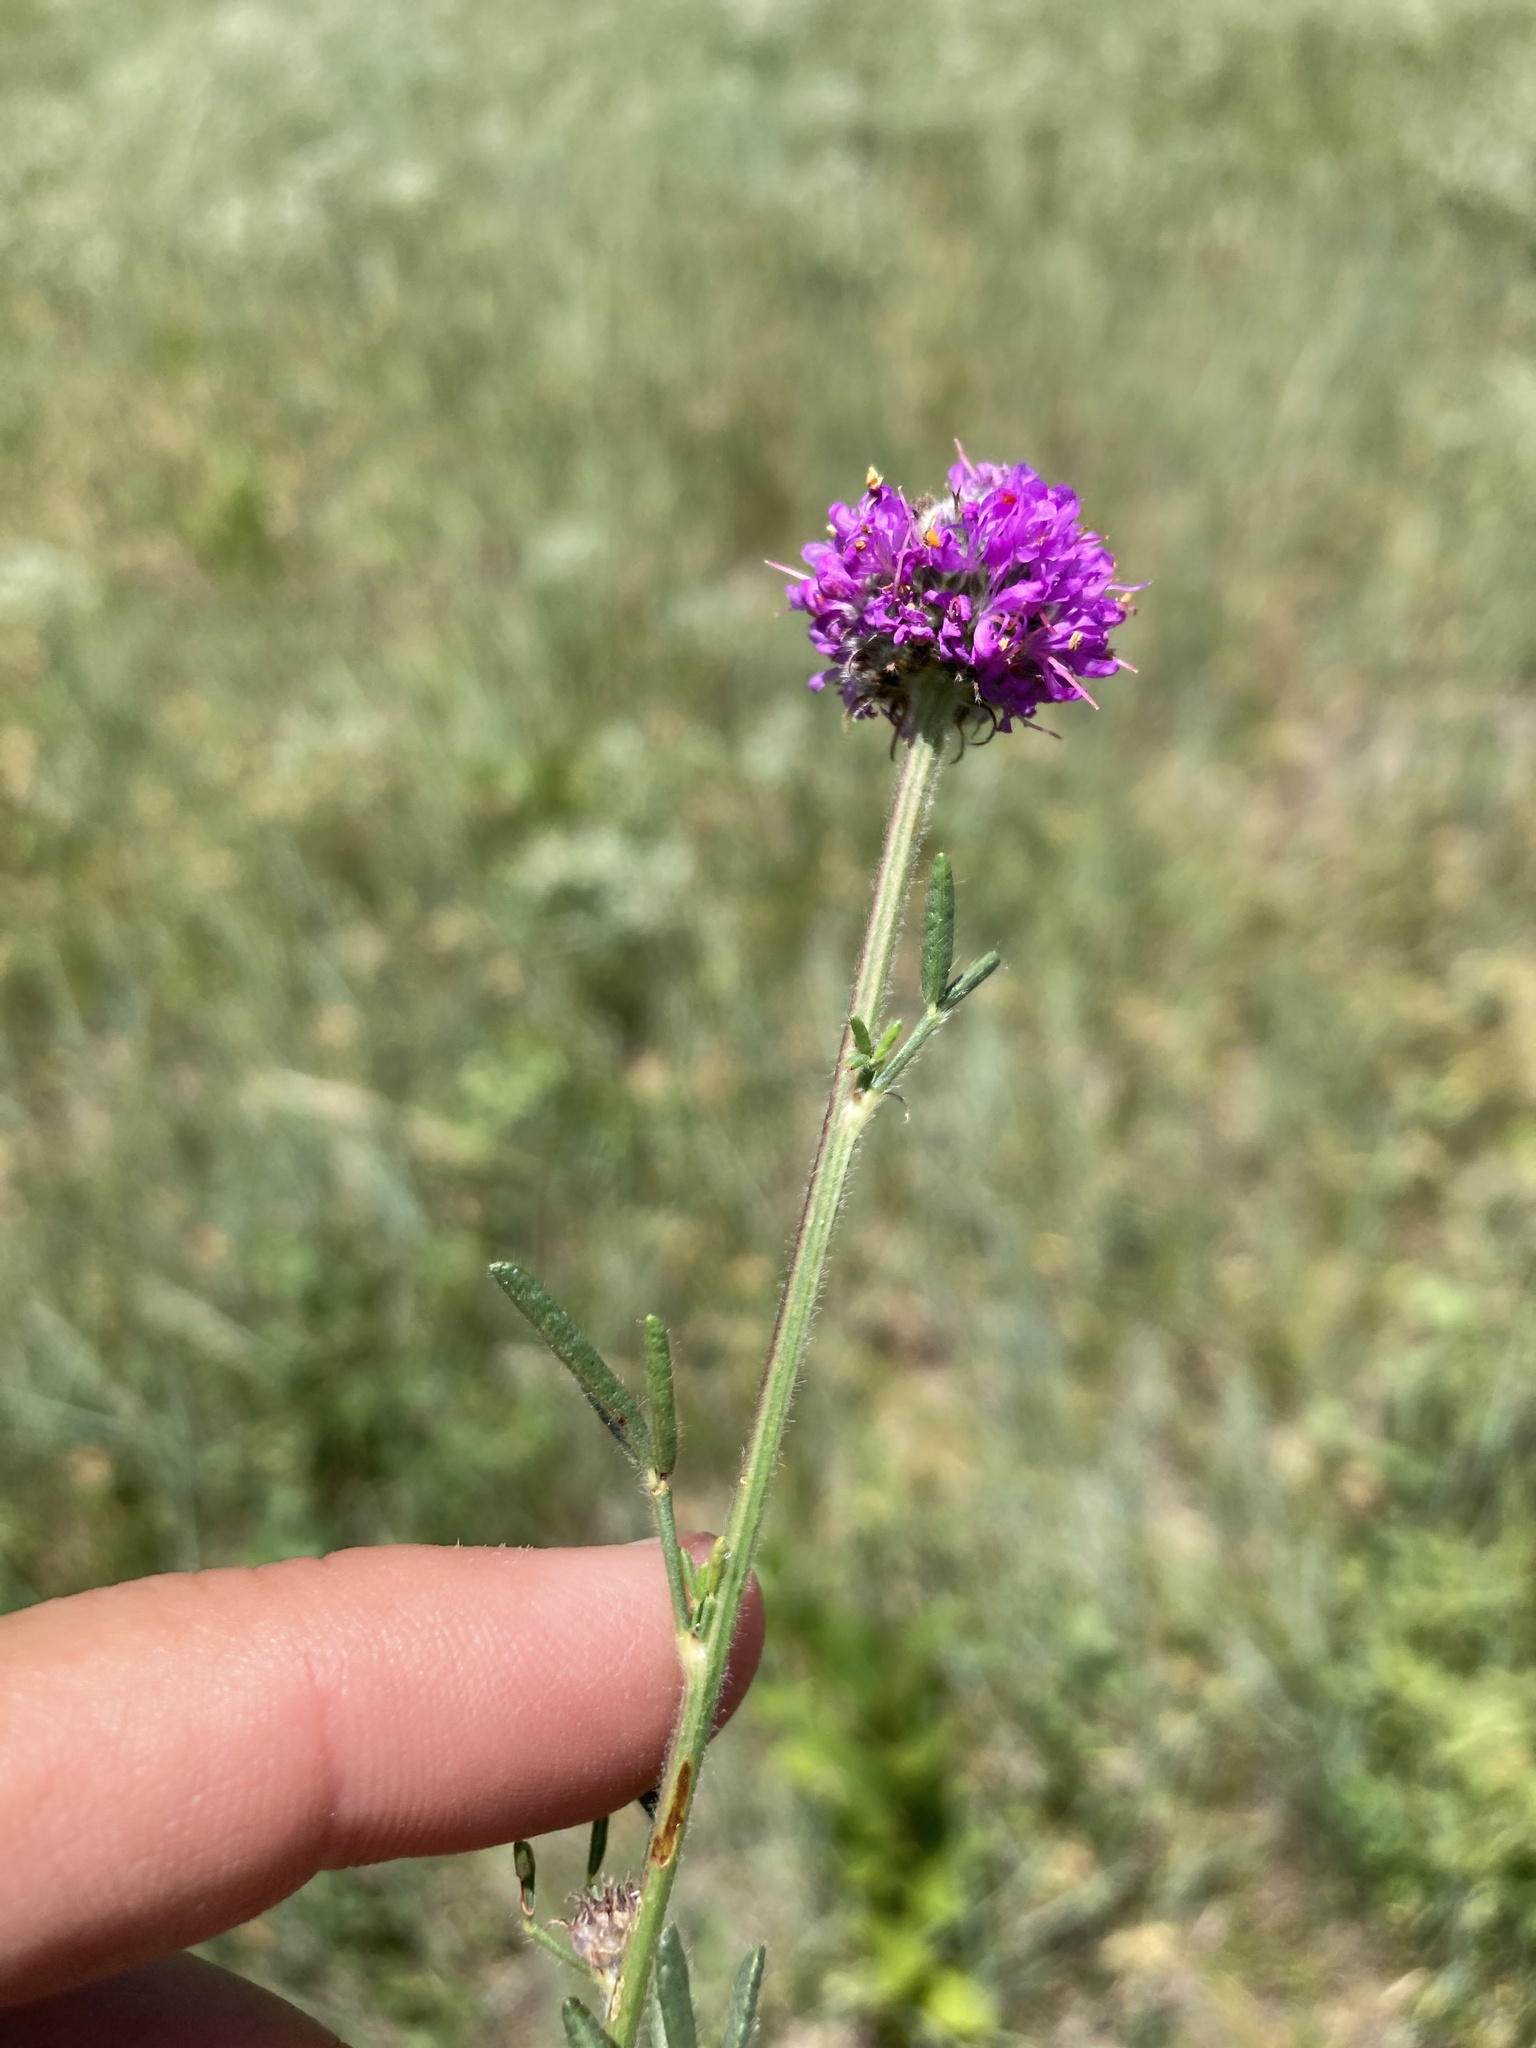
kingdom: Plantae
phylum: Tracheophyta
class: Magnoliopsida
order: Fabales
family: Fabaceae
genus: Dalea
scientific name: Dalea purpurea
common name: Purple prairie-clover
